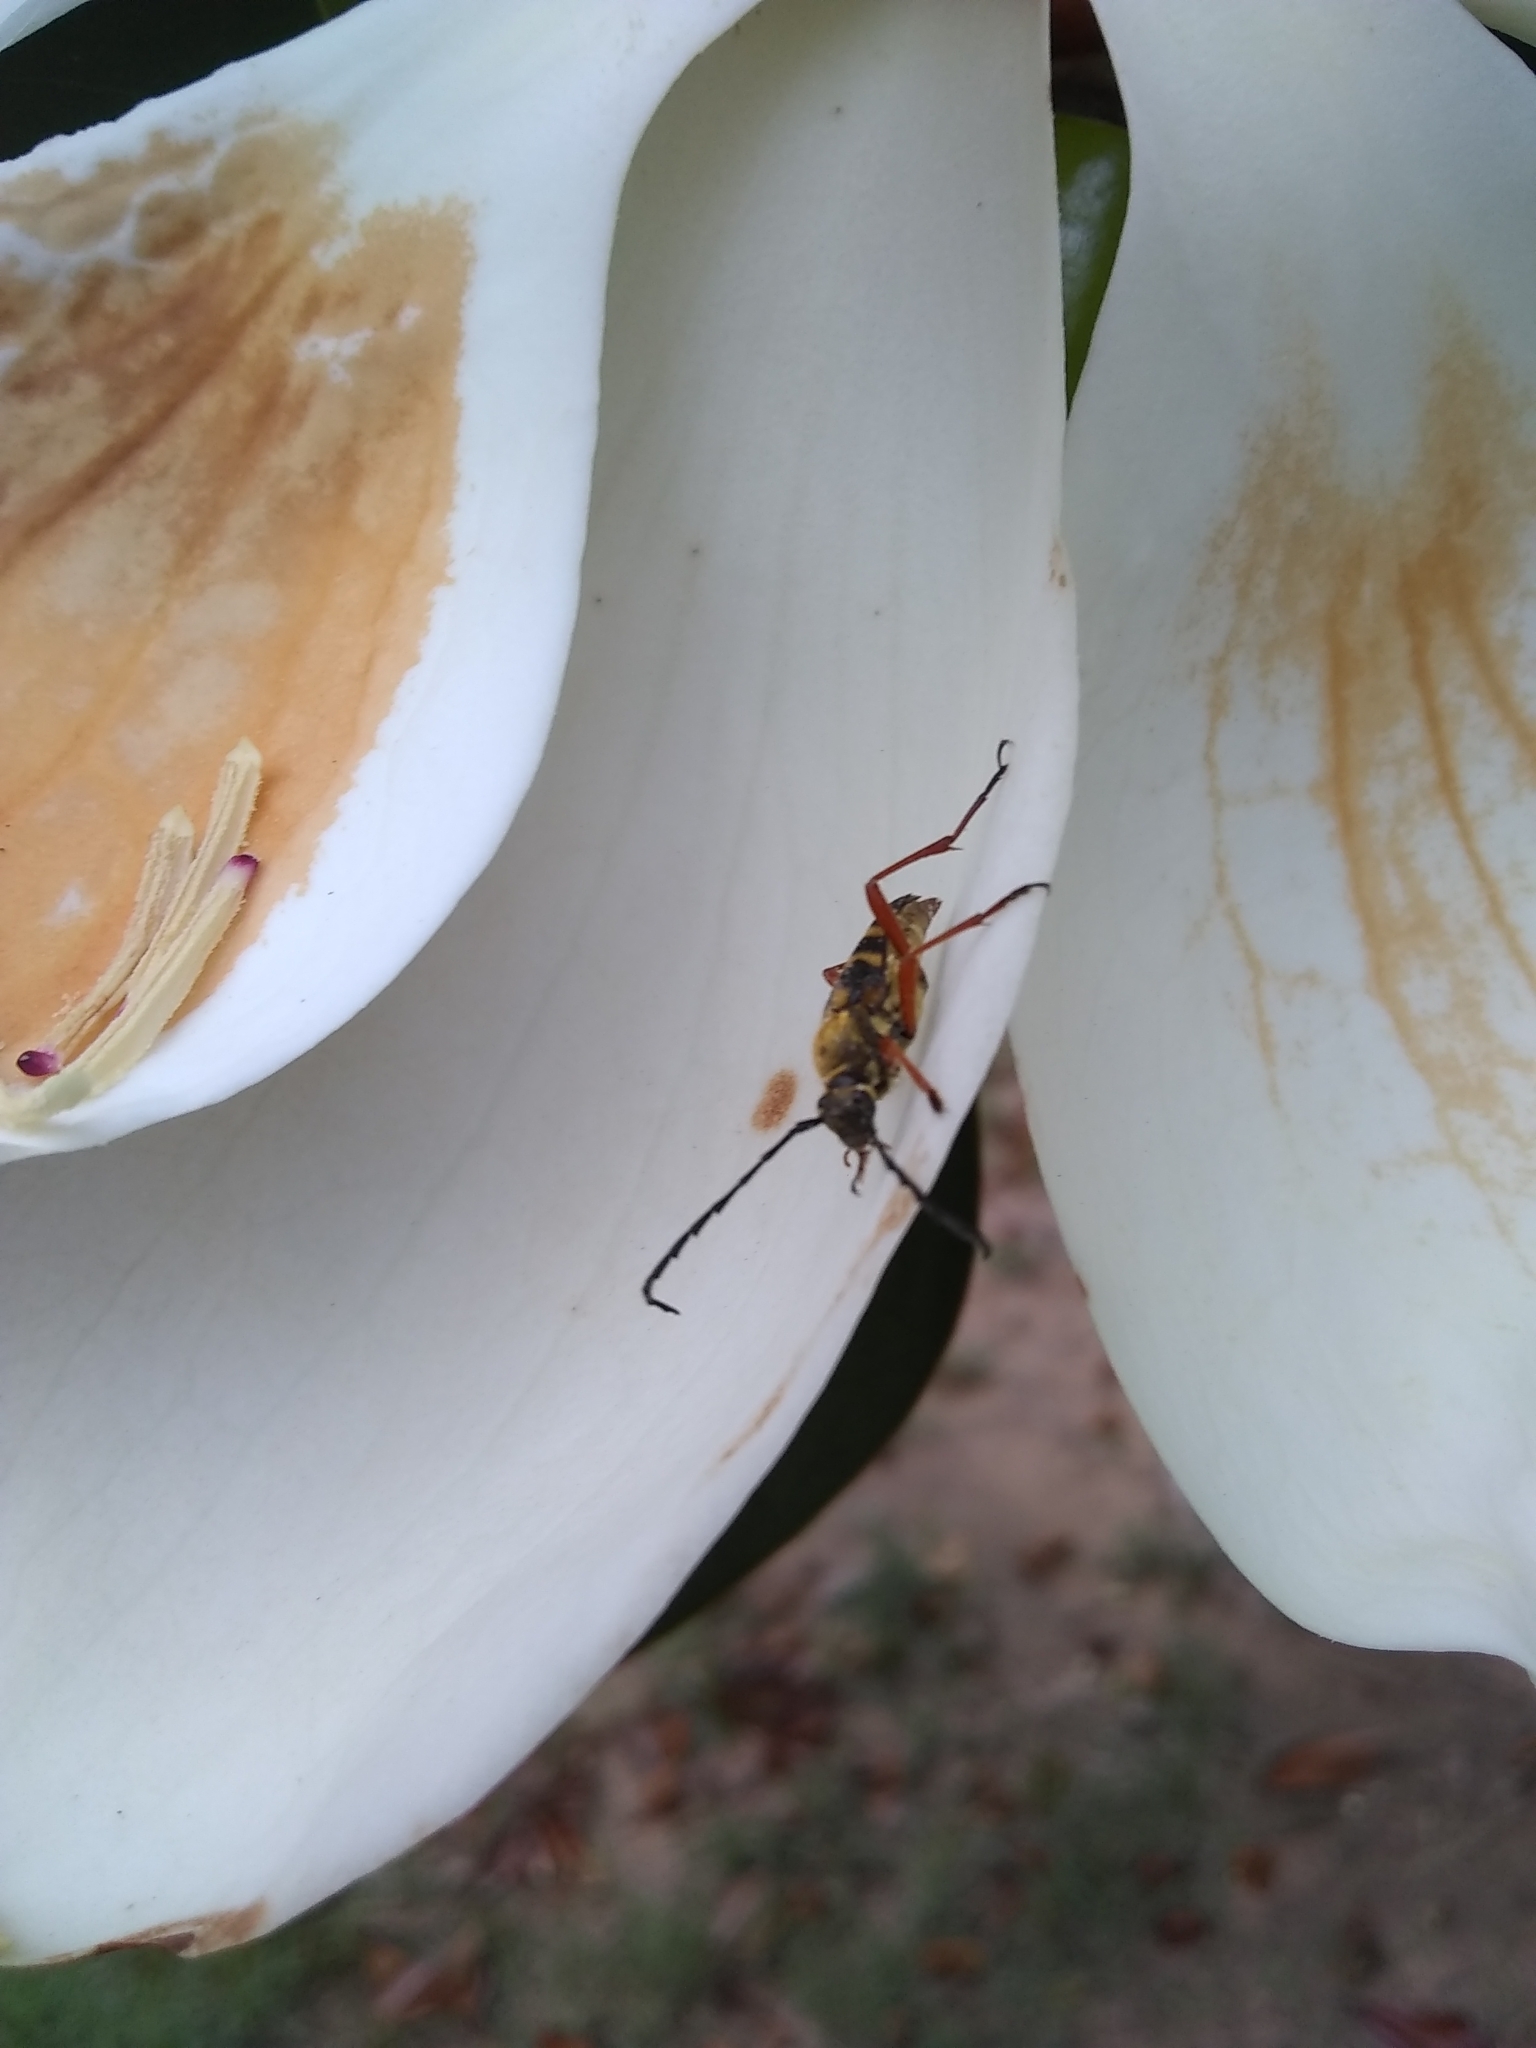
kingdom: Animalia
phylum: Arthropoda
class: Insecta
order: Coleoptera
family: Cerambycidae
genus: Typocerus
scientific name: Typocerus zebra
